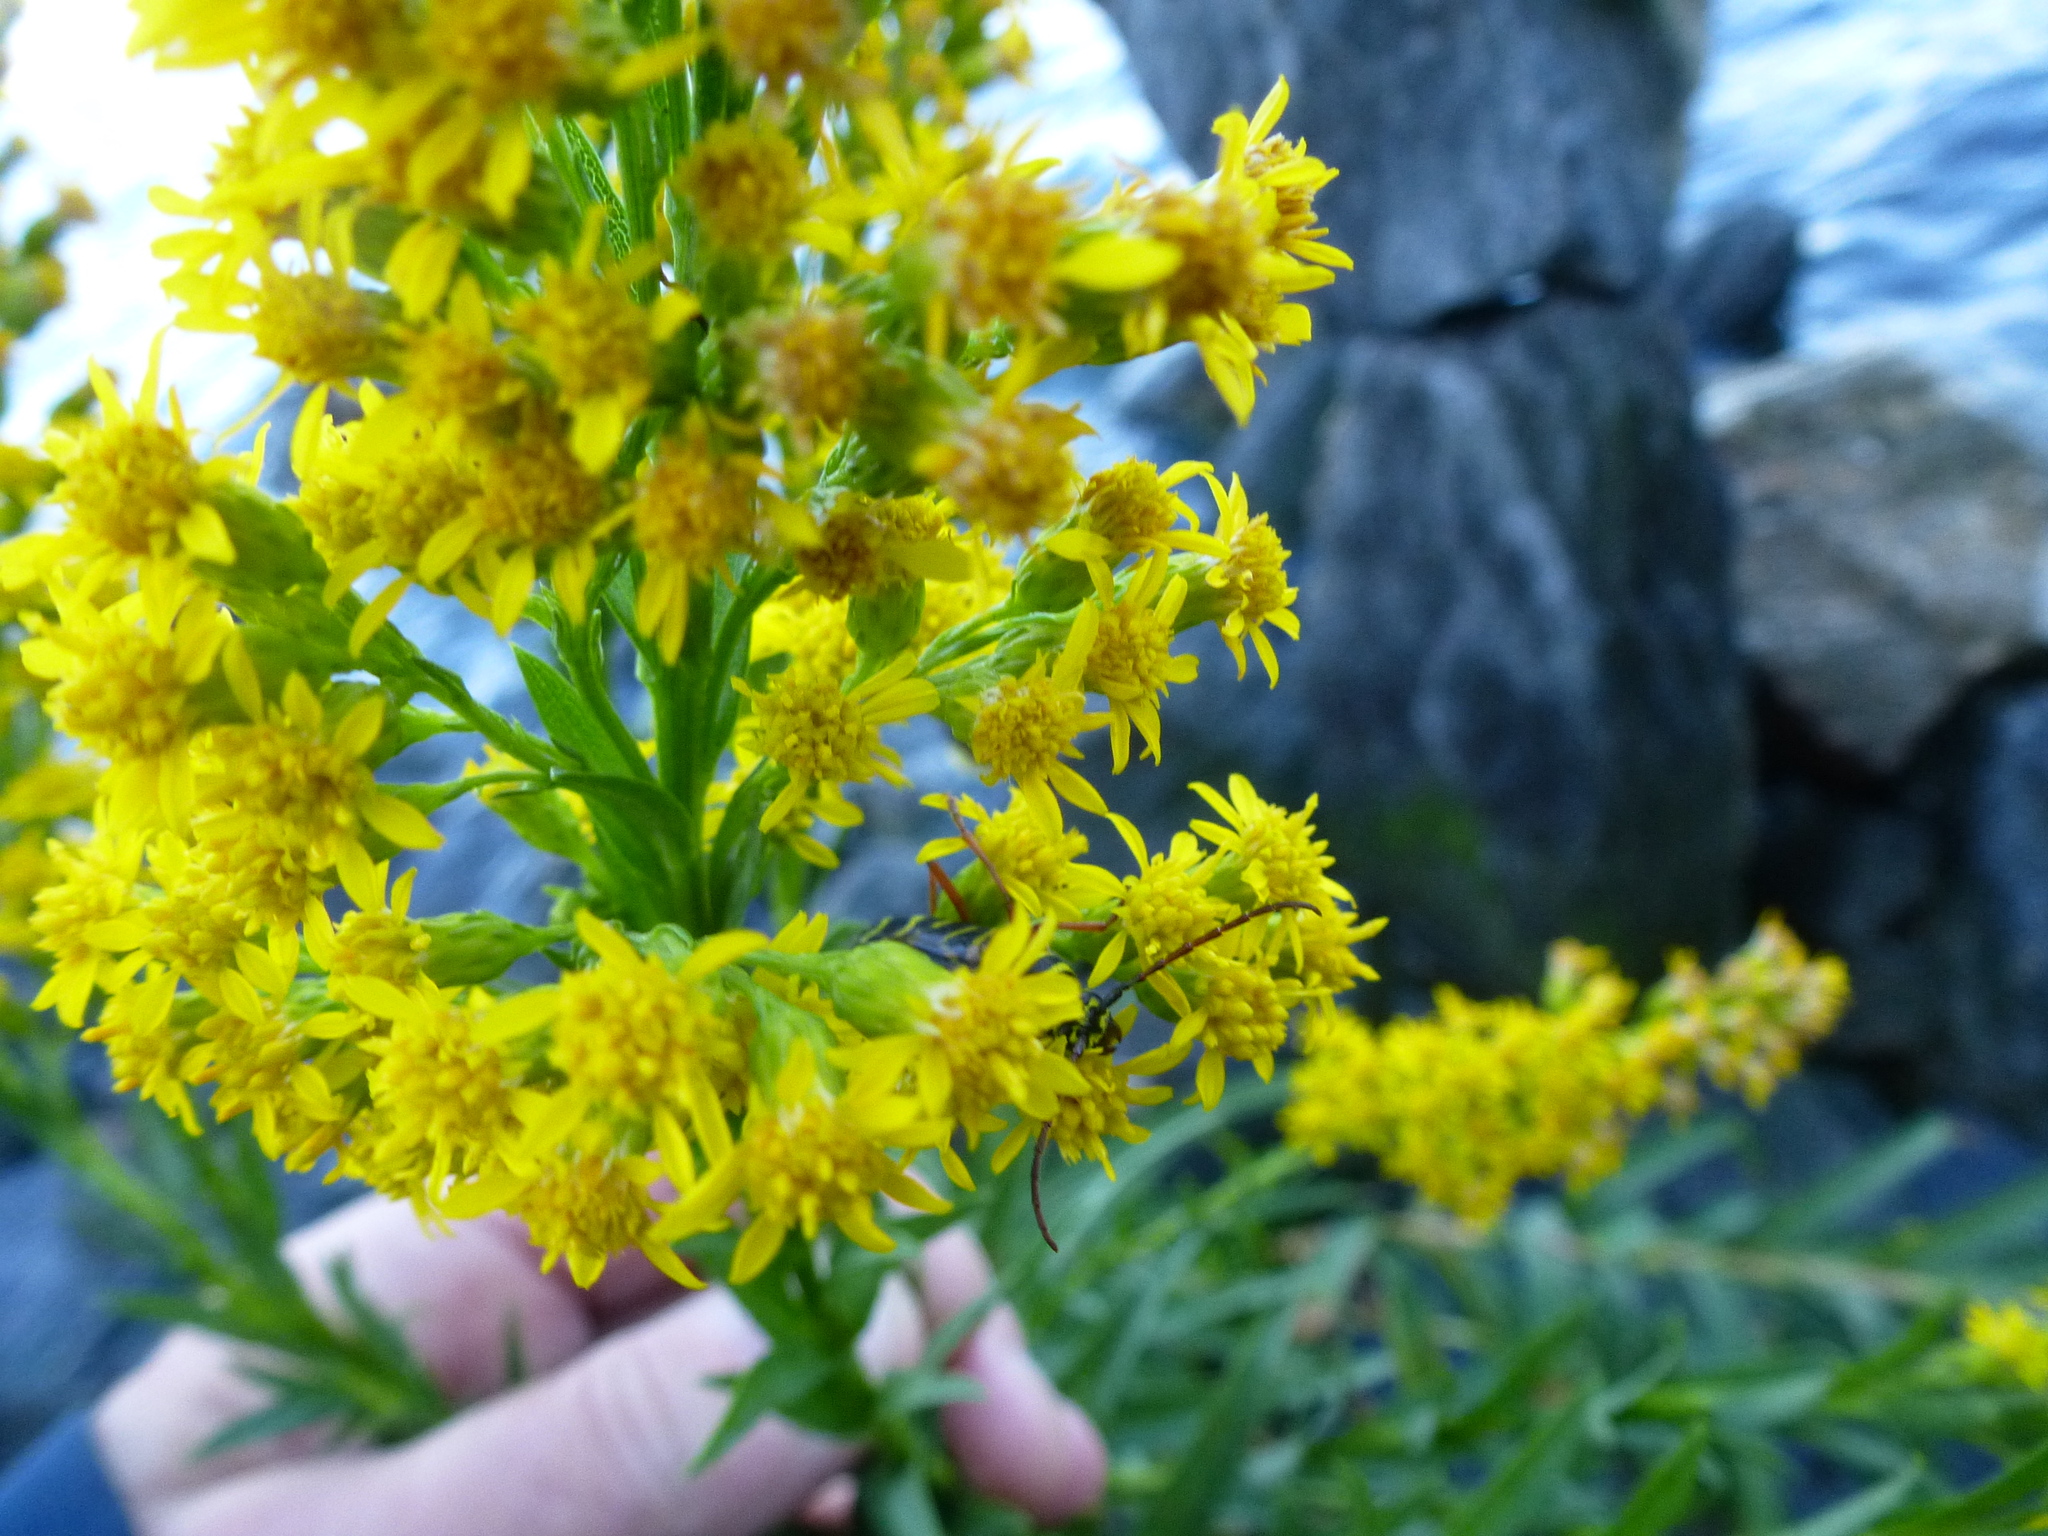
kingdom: Plantae
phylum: Tracheophyta
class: Magnoliopsida
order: Asterales
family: Asteraceae
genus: Solidago
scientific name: Solidago sempervirens
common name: Salt-marsh goldenrod
